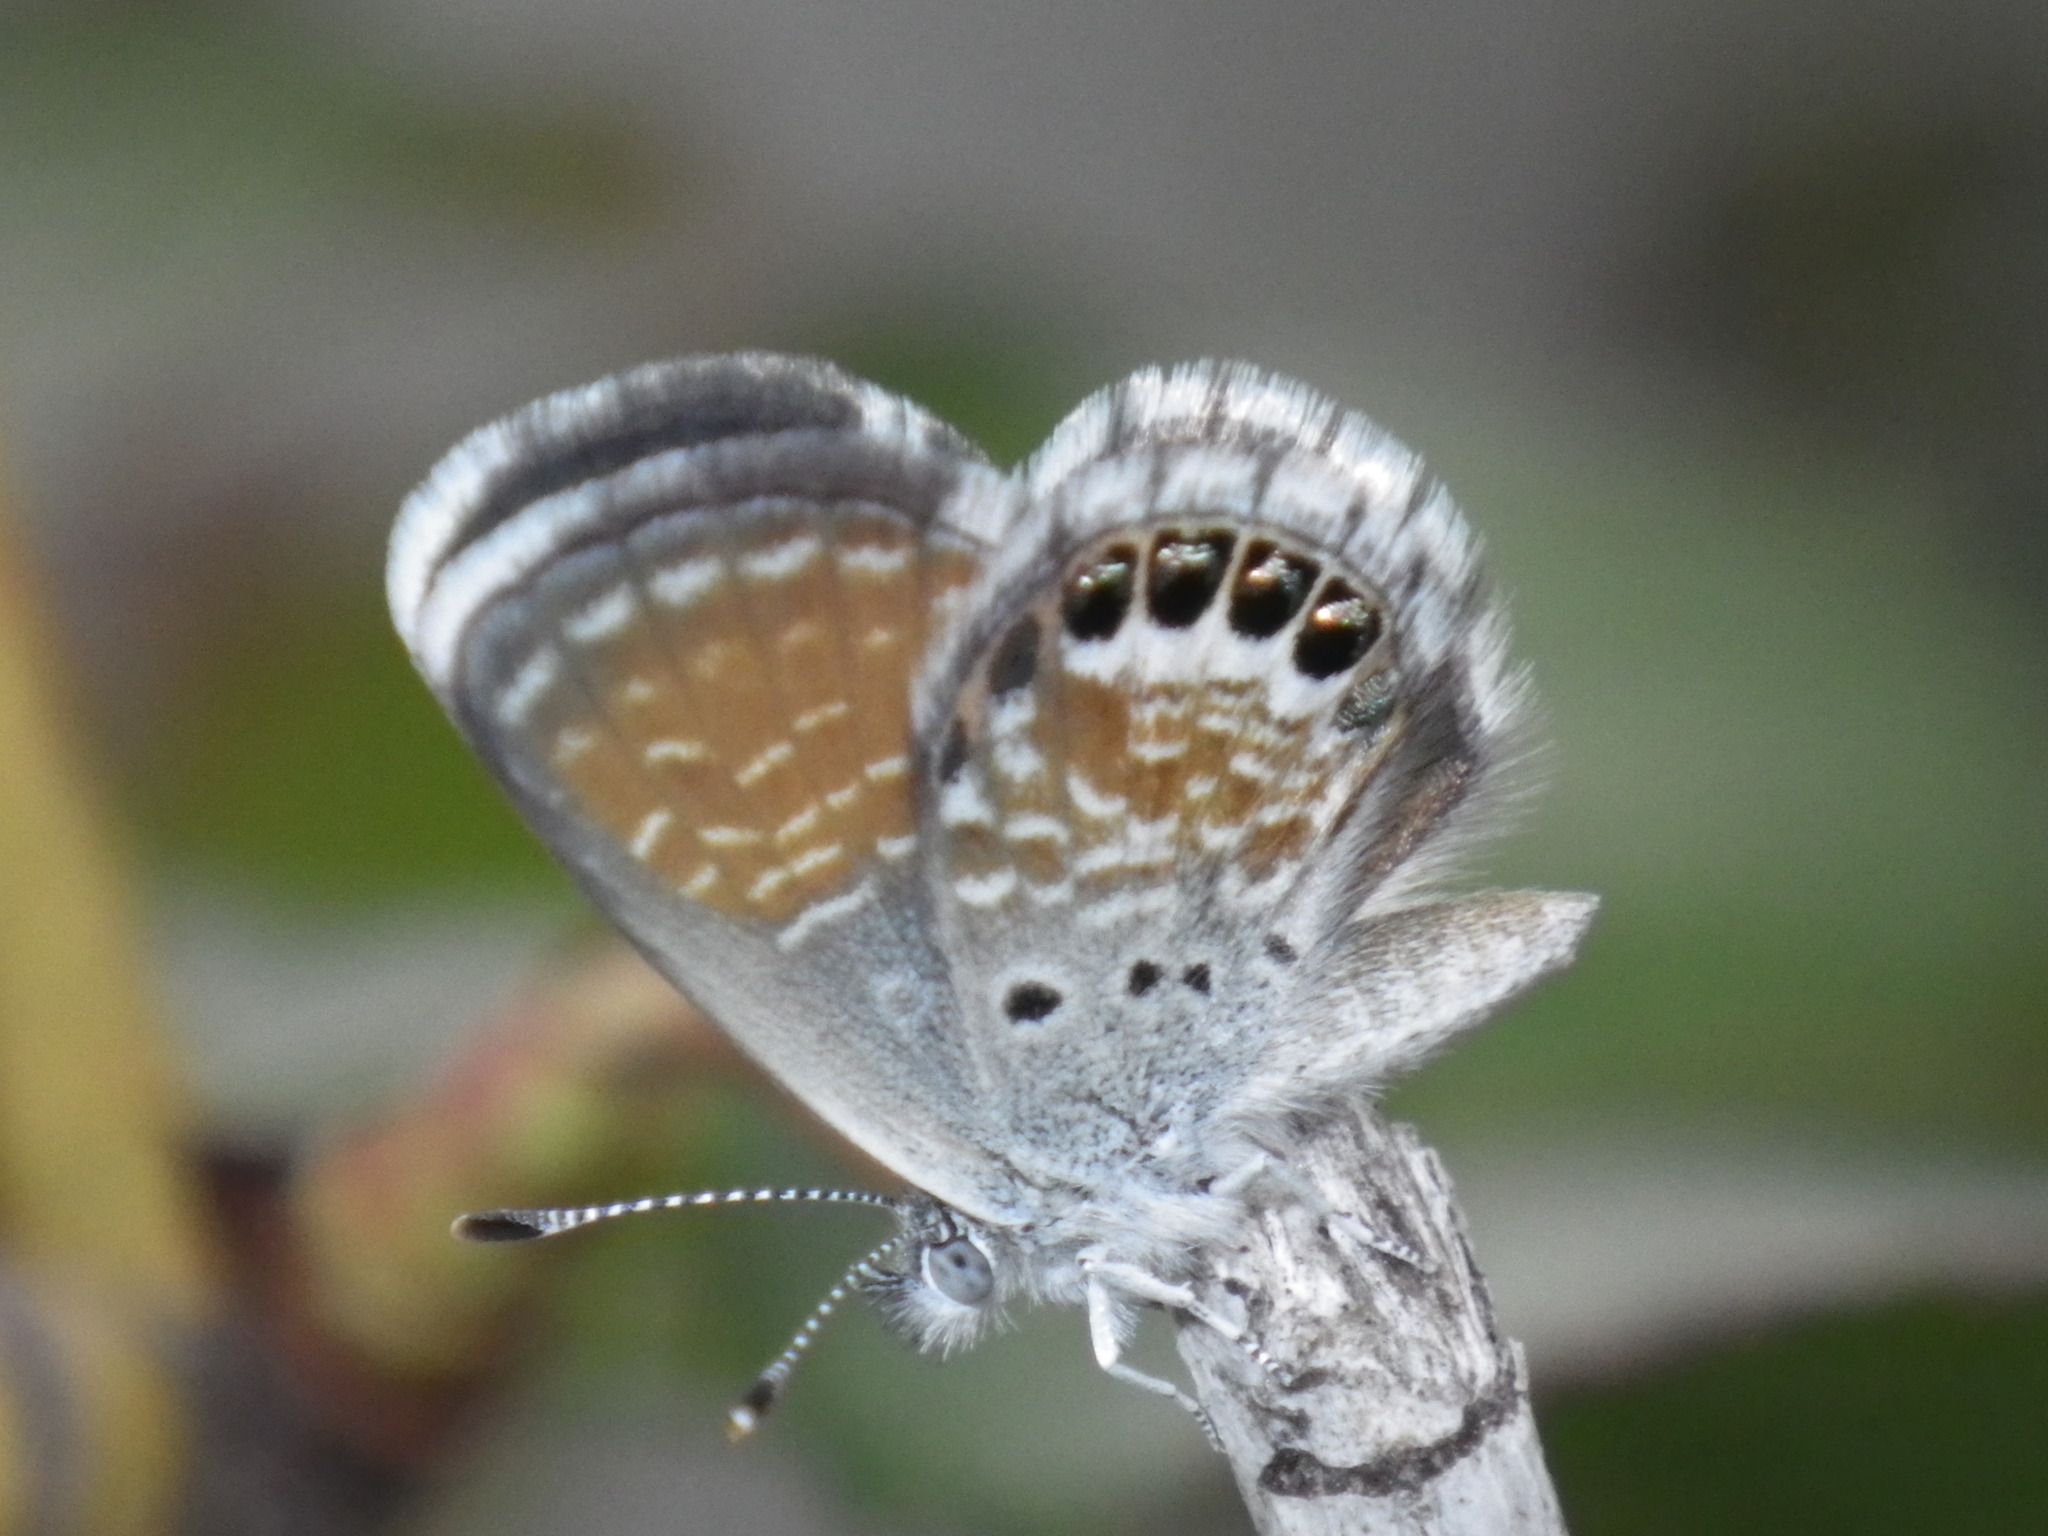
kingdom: Animalia
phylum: Arthropoda
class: Insecta
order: Lepidoptera
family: Lycaenidae
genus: Brephidium
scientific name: Brephidium exilis
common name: Pygmy blue
